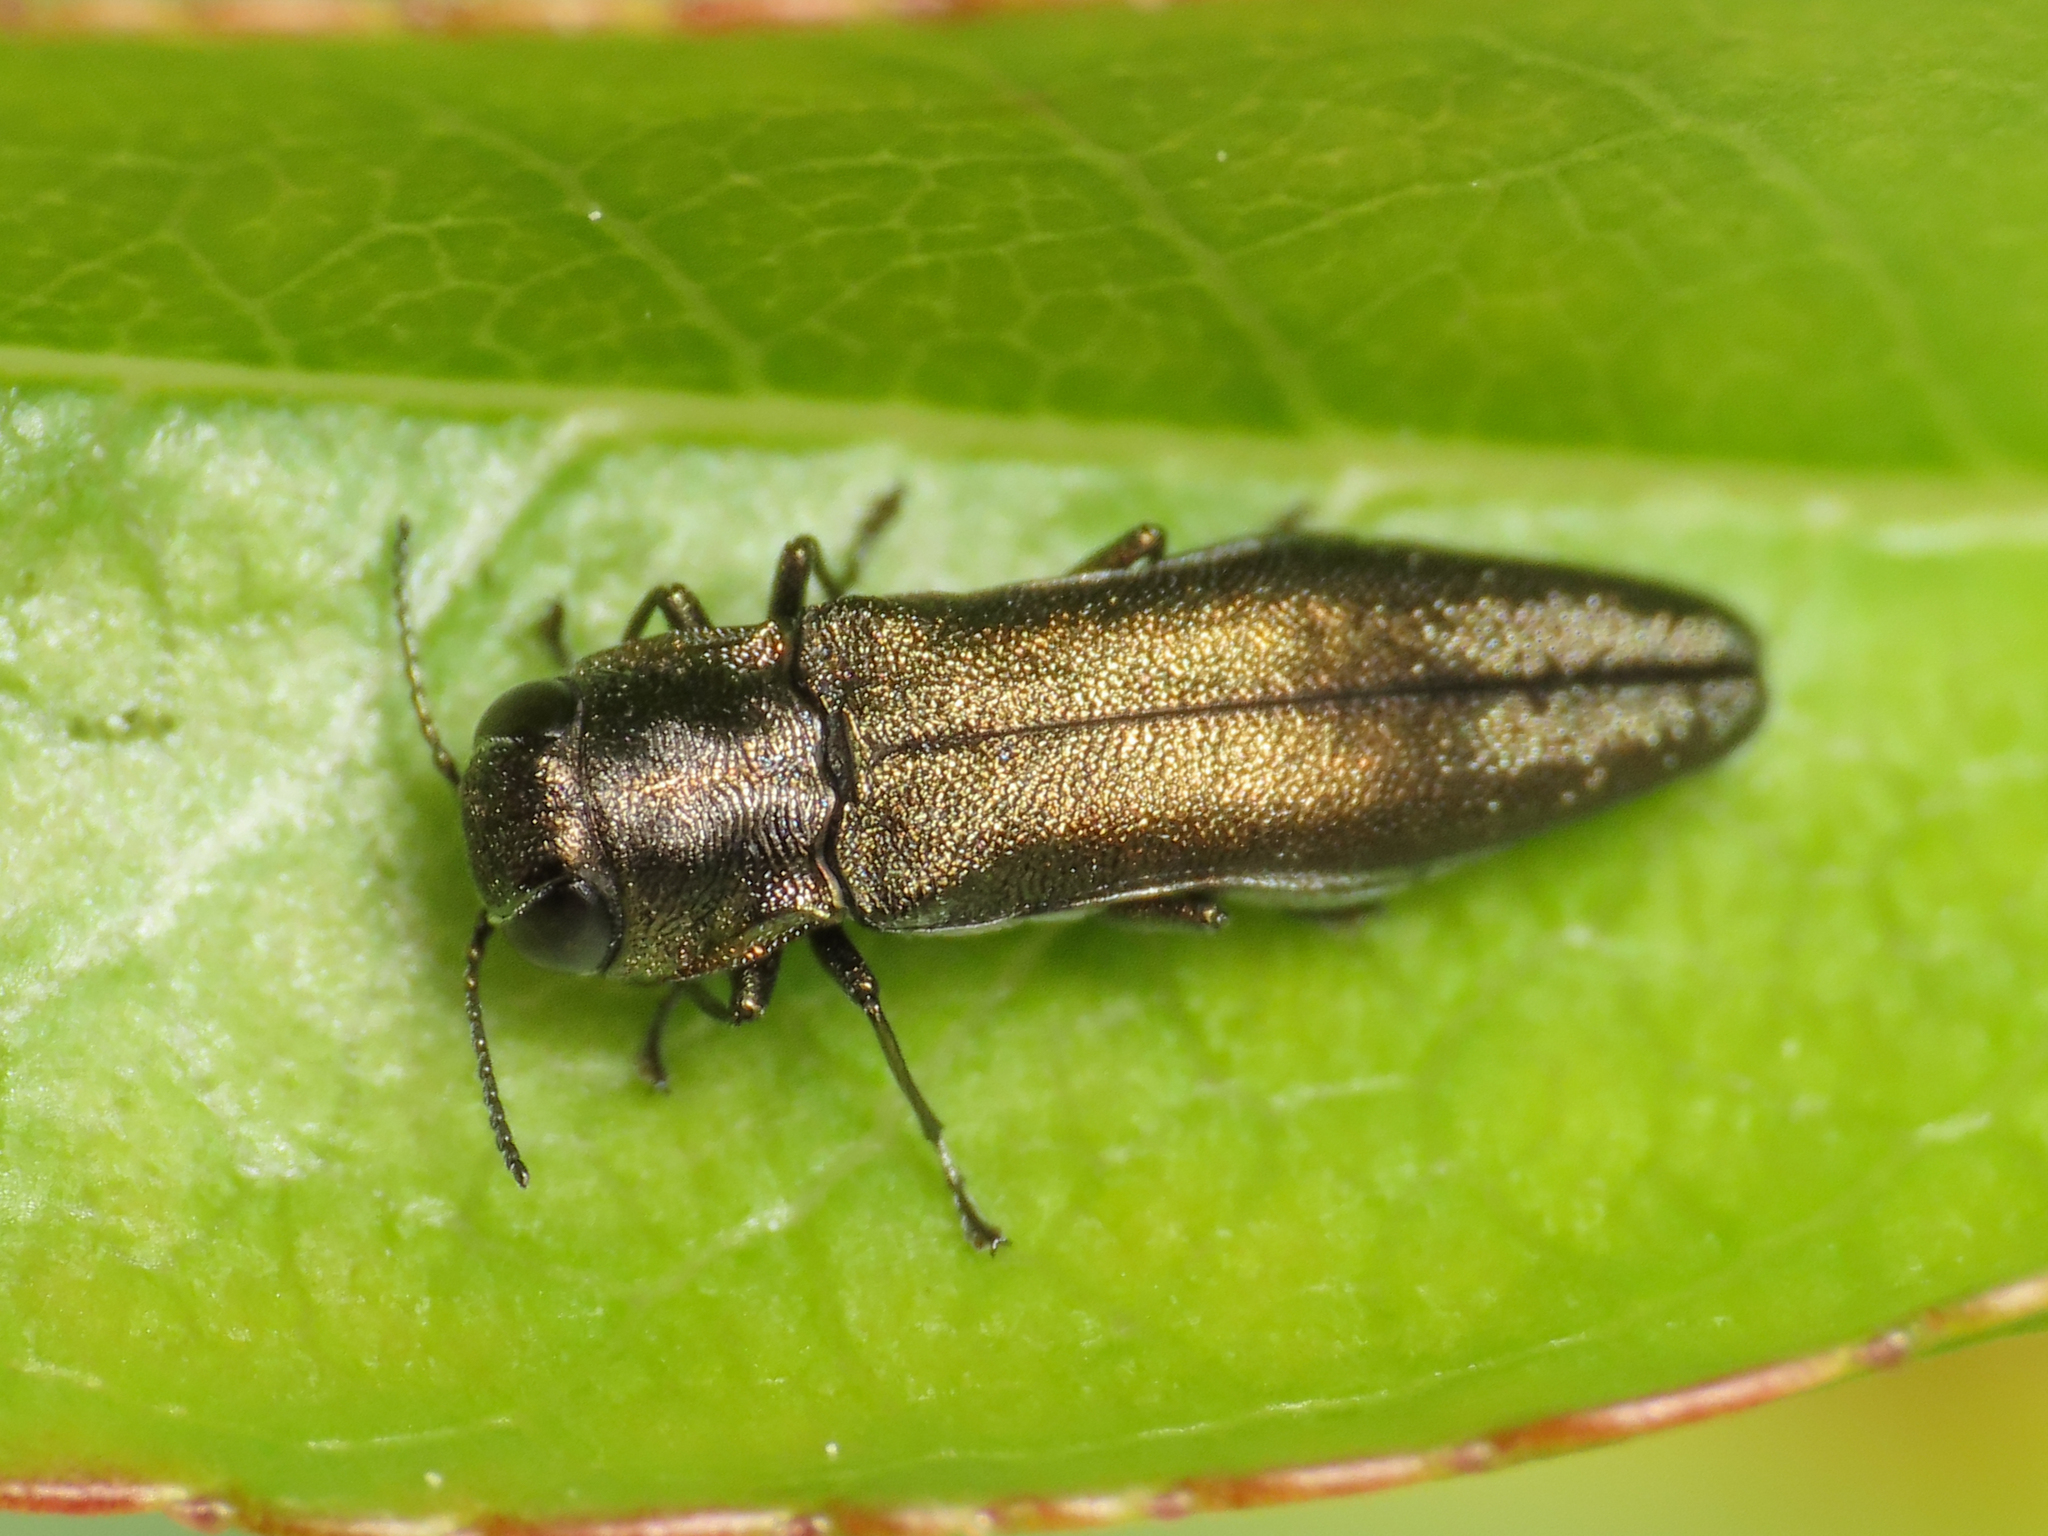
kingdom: Animalia
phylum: Arthropoda
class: Insecta
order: Coleoptera
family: Buprestidae
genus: Agrilus
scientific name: Agrilus derasofasciatus
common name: Metallic wood-boring beetle
